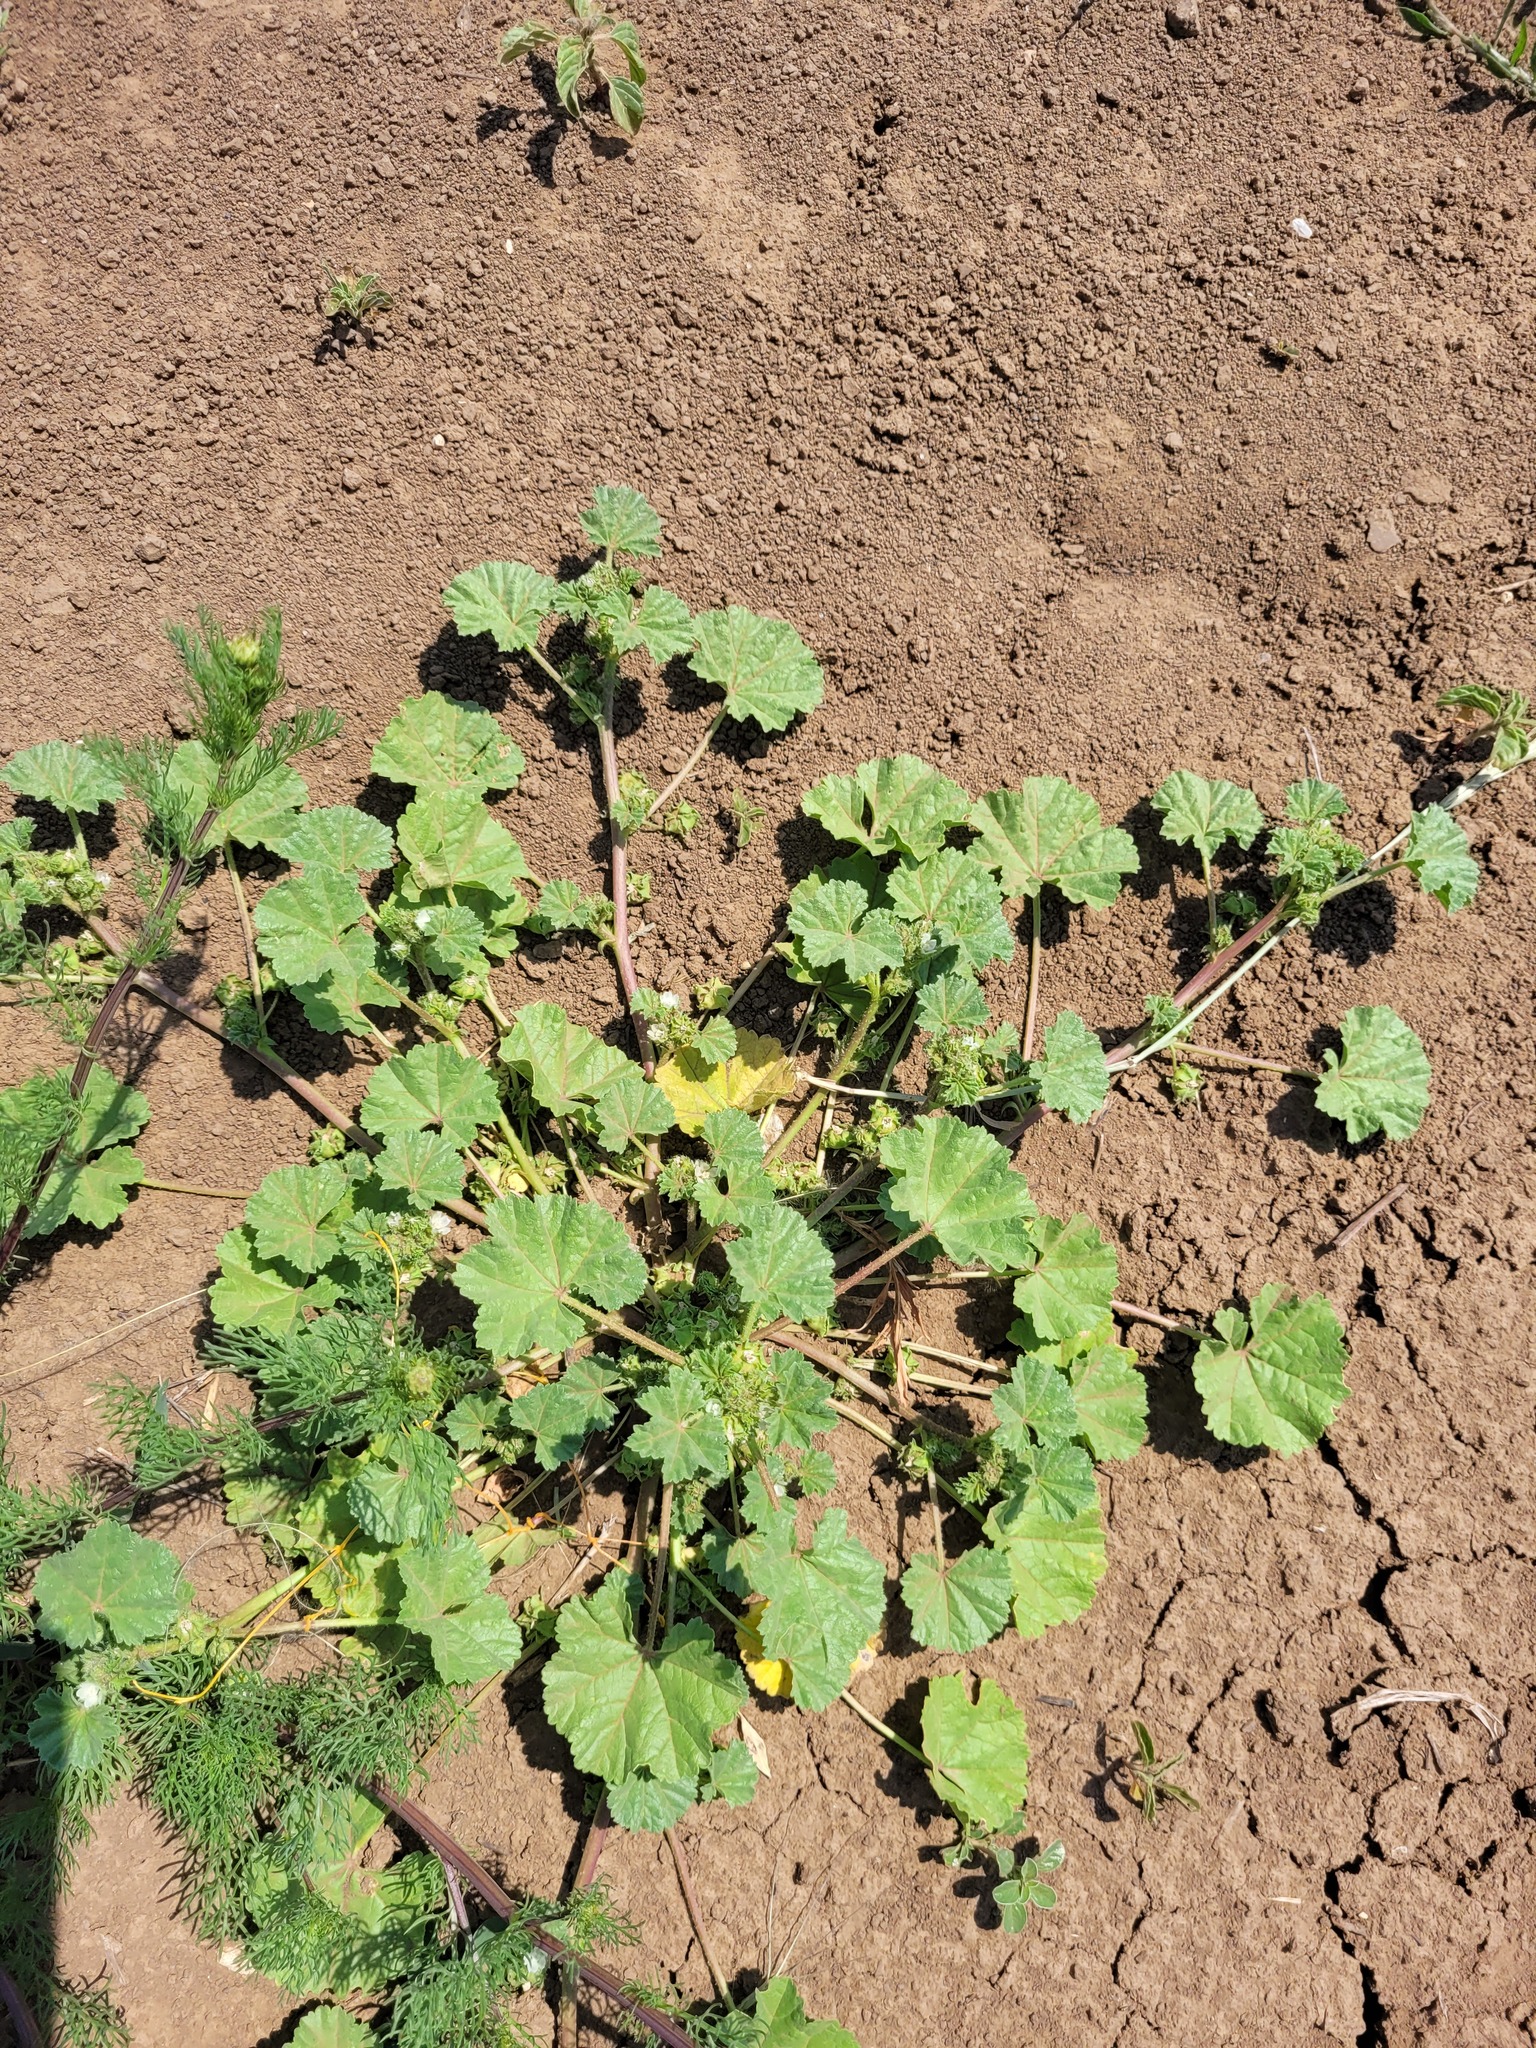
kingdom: Plantae
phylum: Tracheophyta
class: Magnoliopsida
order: Malvales
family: Malvaceae
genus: Malva
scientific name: Malva pusilla
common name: Small mallow
